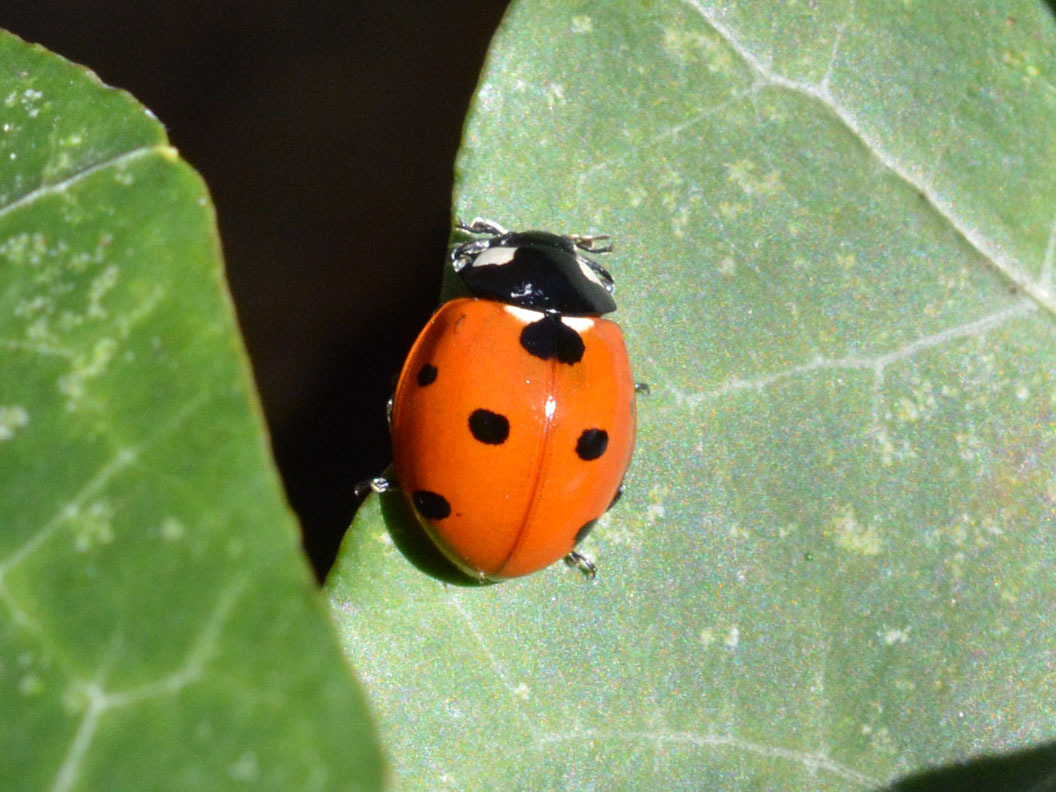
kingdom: Animalia
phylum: Arthropoda
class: Insecta
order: Coleoptera
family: Coccinellidae
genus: Coccinella
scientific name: Coccinella septempunctata
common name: Sevenspotted lady beetle
